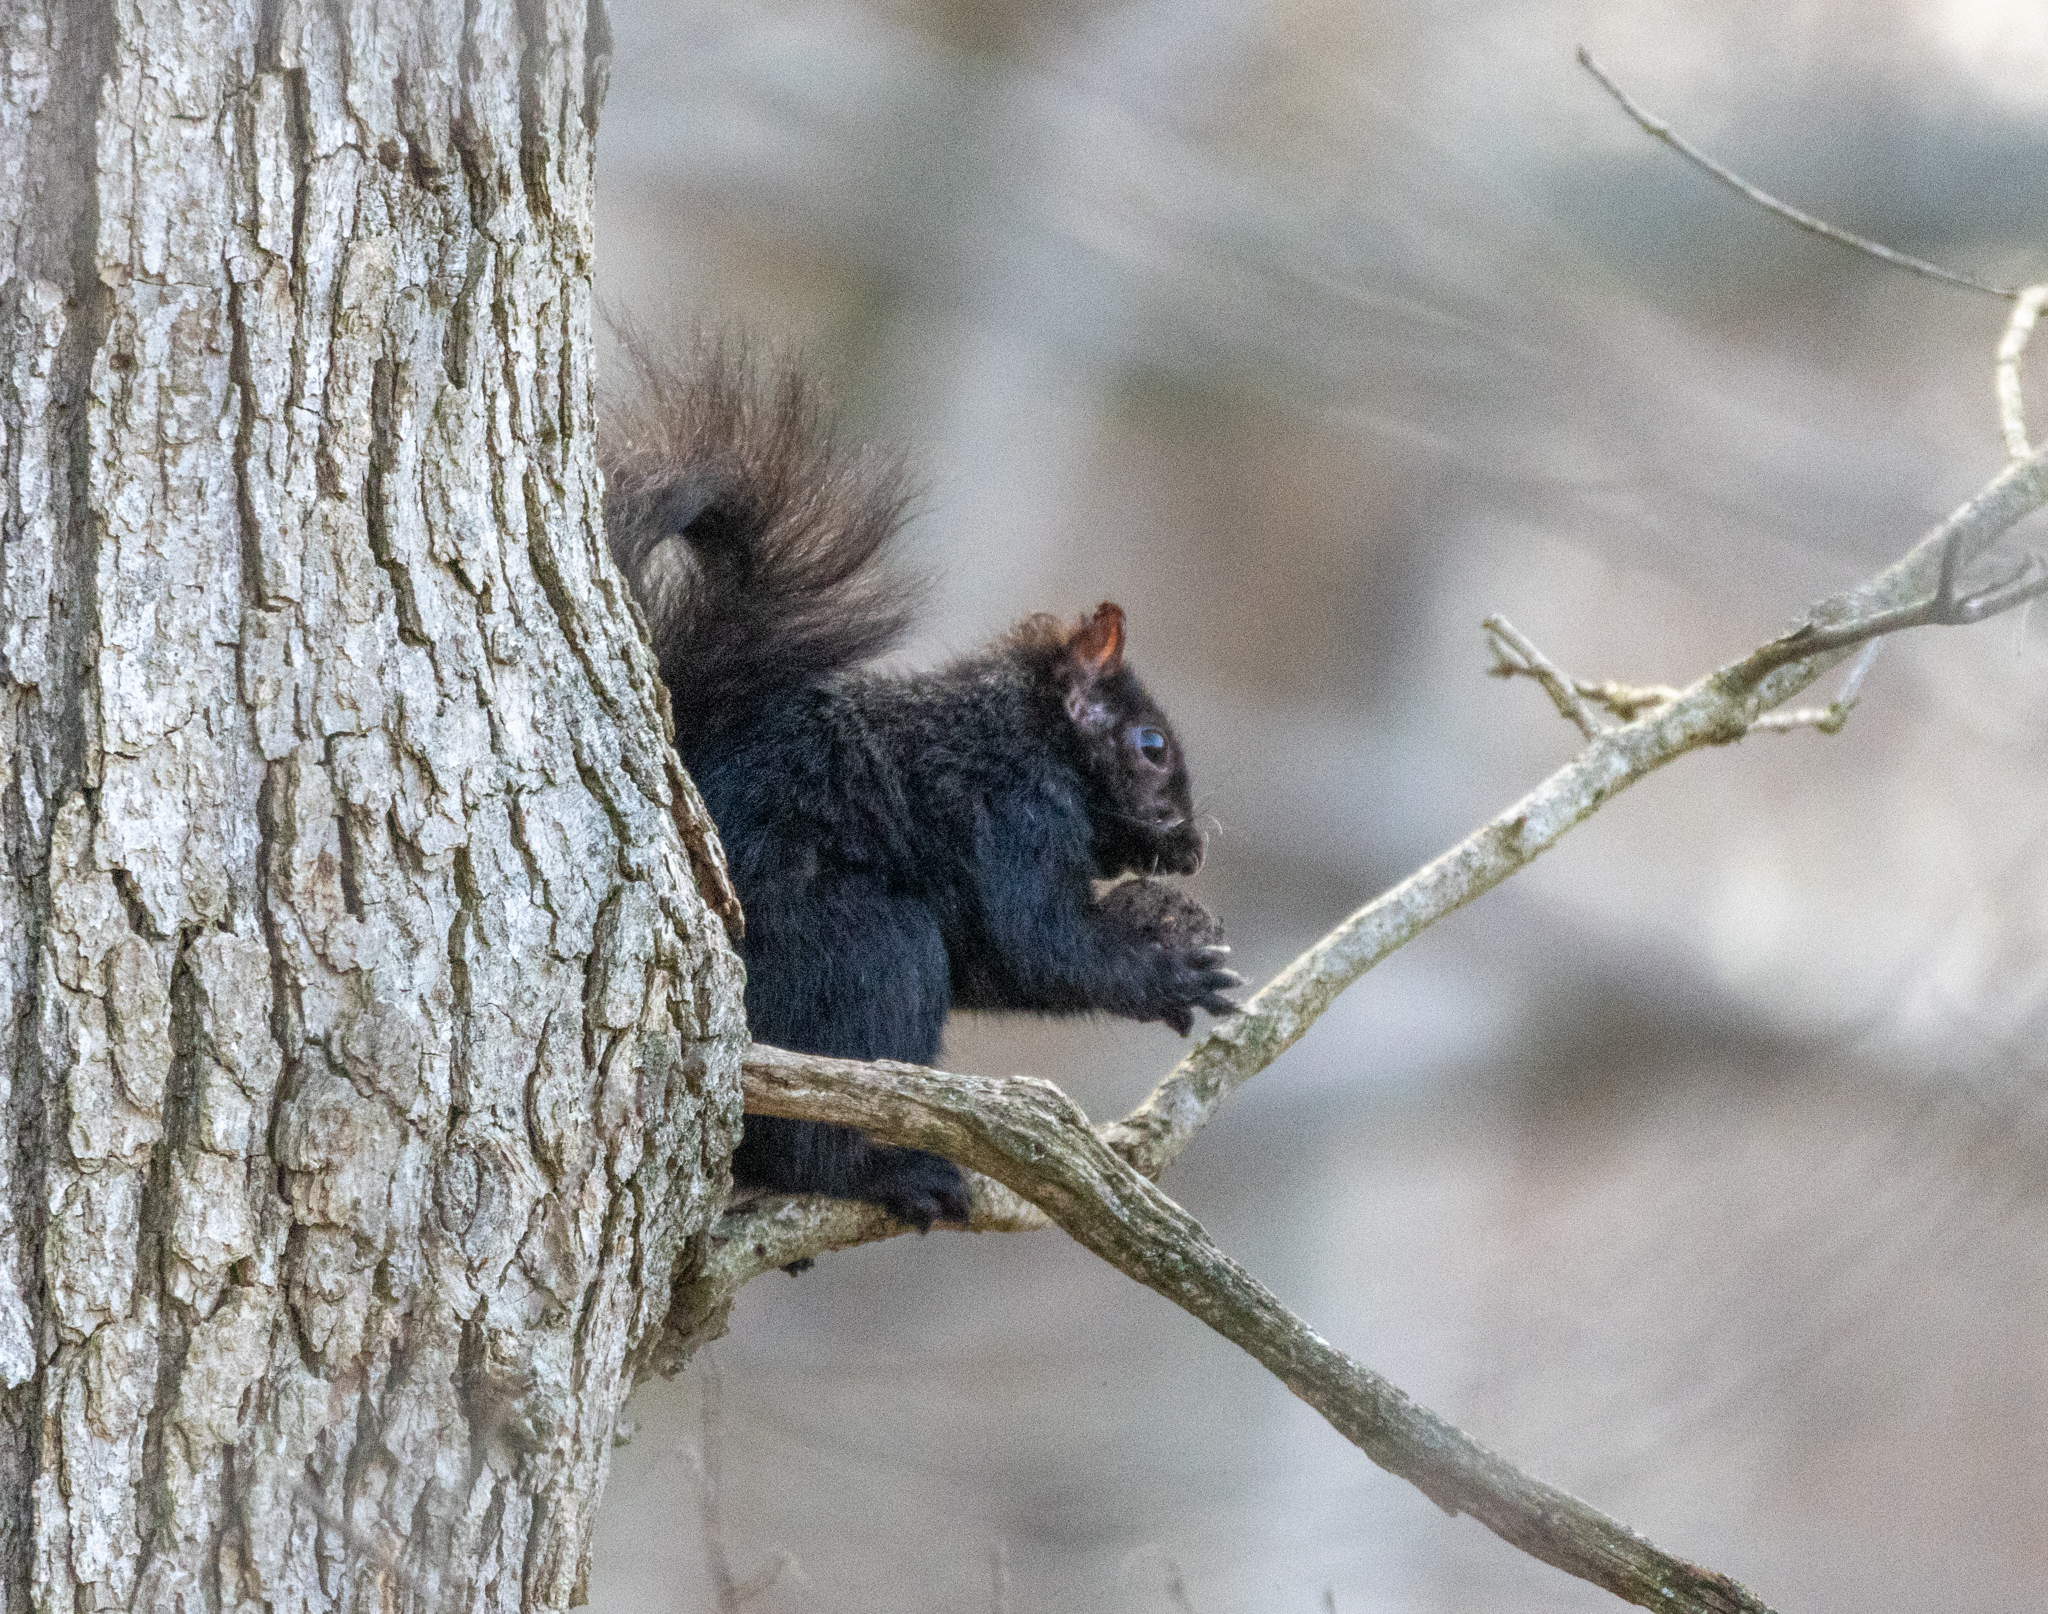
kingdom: Animalia
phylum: Chordata
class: Mammalia
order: Rodentia
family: Sciuridae
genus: Sciurus
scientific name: Sciurus carolinensis
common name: Eastern gray squirrel
